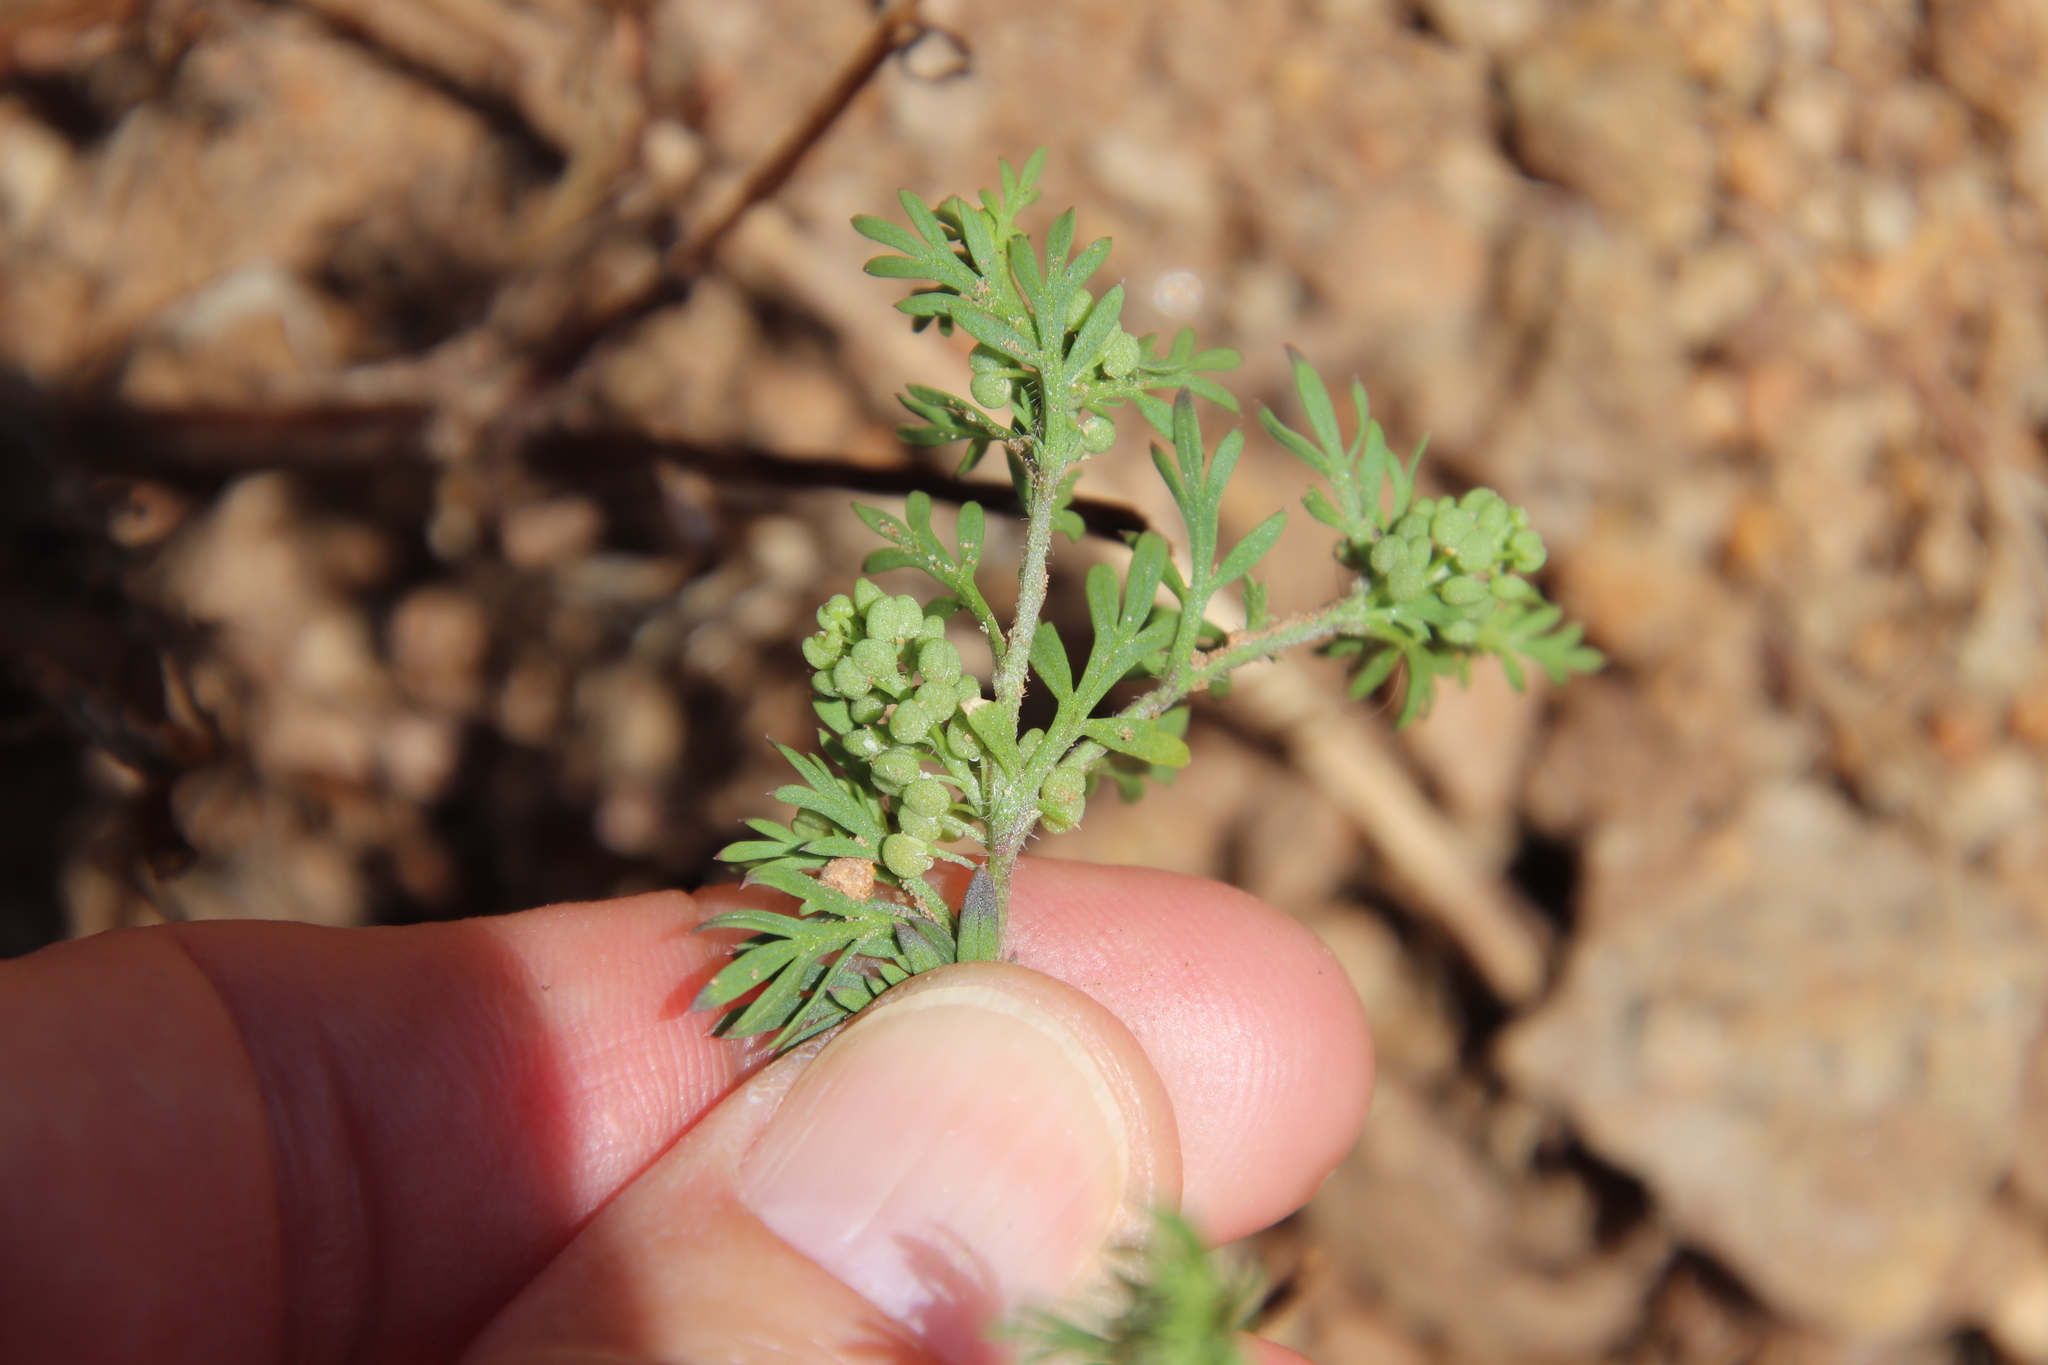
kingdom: Plantae
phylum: Tracheophyta
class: Magnoliopsida
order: Brassicales
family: Brassicaceae
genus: Lepidium
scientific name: Lepidium didymum
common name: Lesser swinecress
